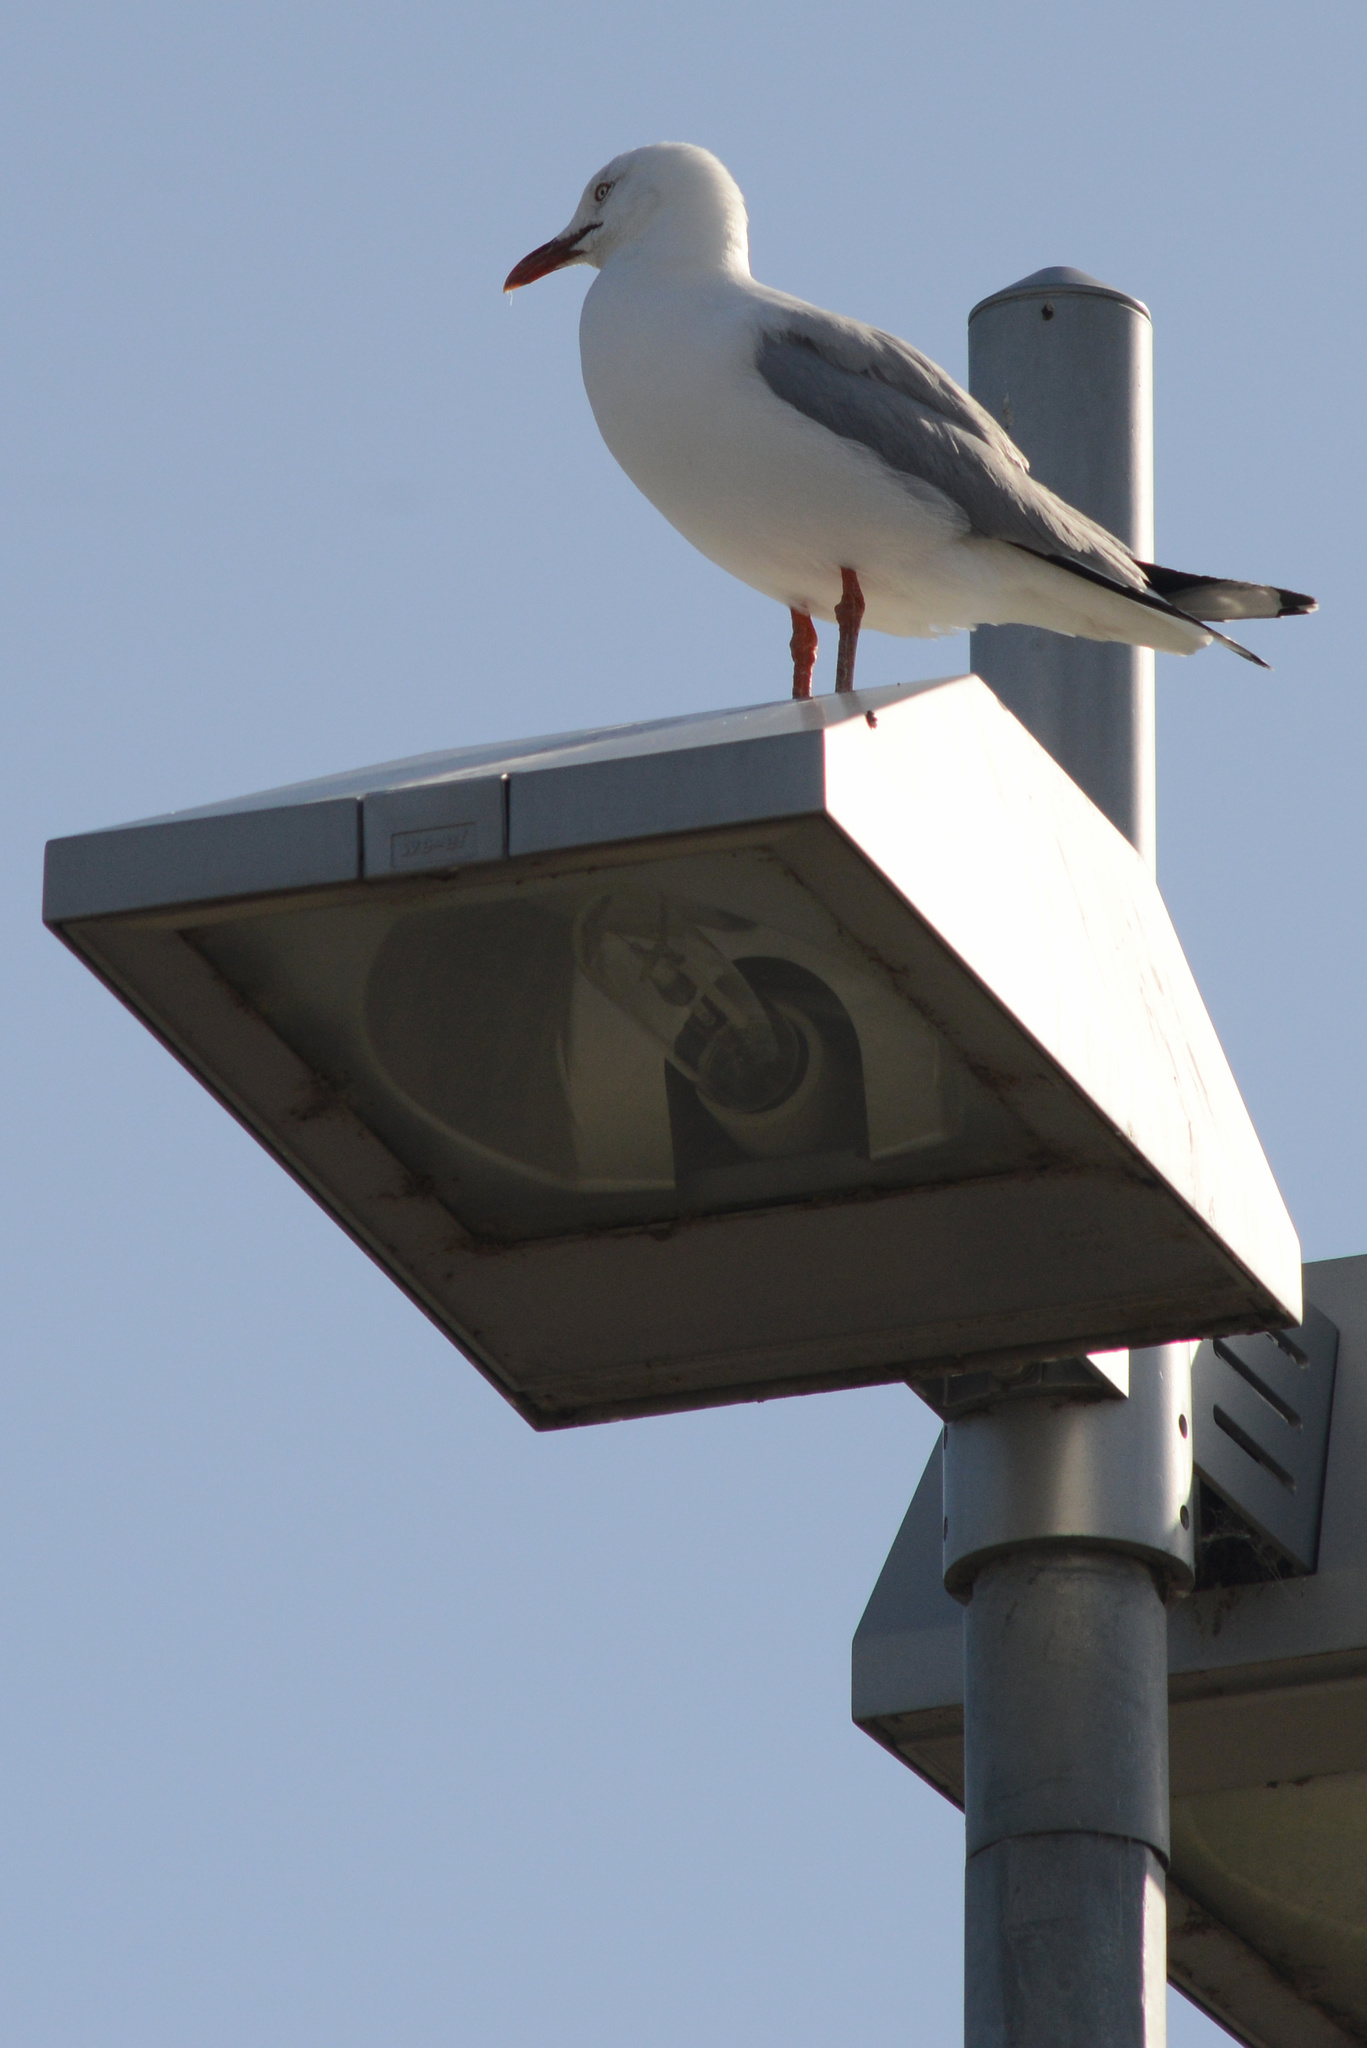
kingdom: Animalia
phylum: Chordata
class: Aves
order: Charadriiformes
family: Laridae
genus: Chroicocephalus
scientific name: Chroicocephalus novaehollandiae
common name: Silver gull
